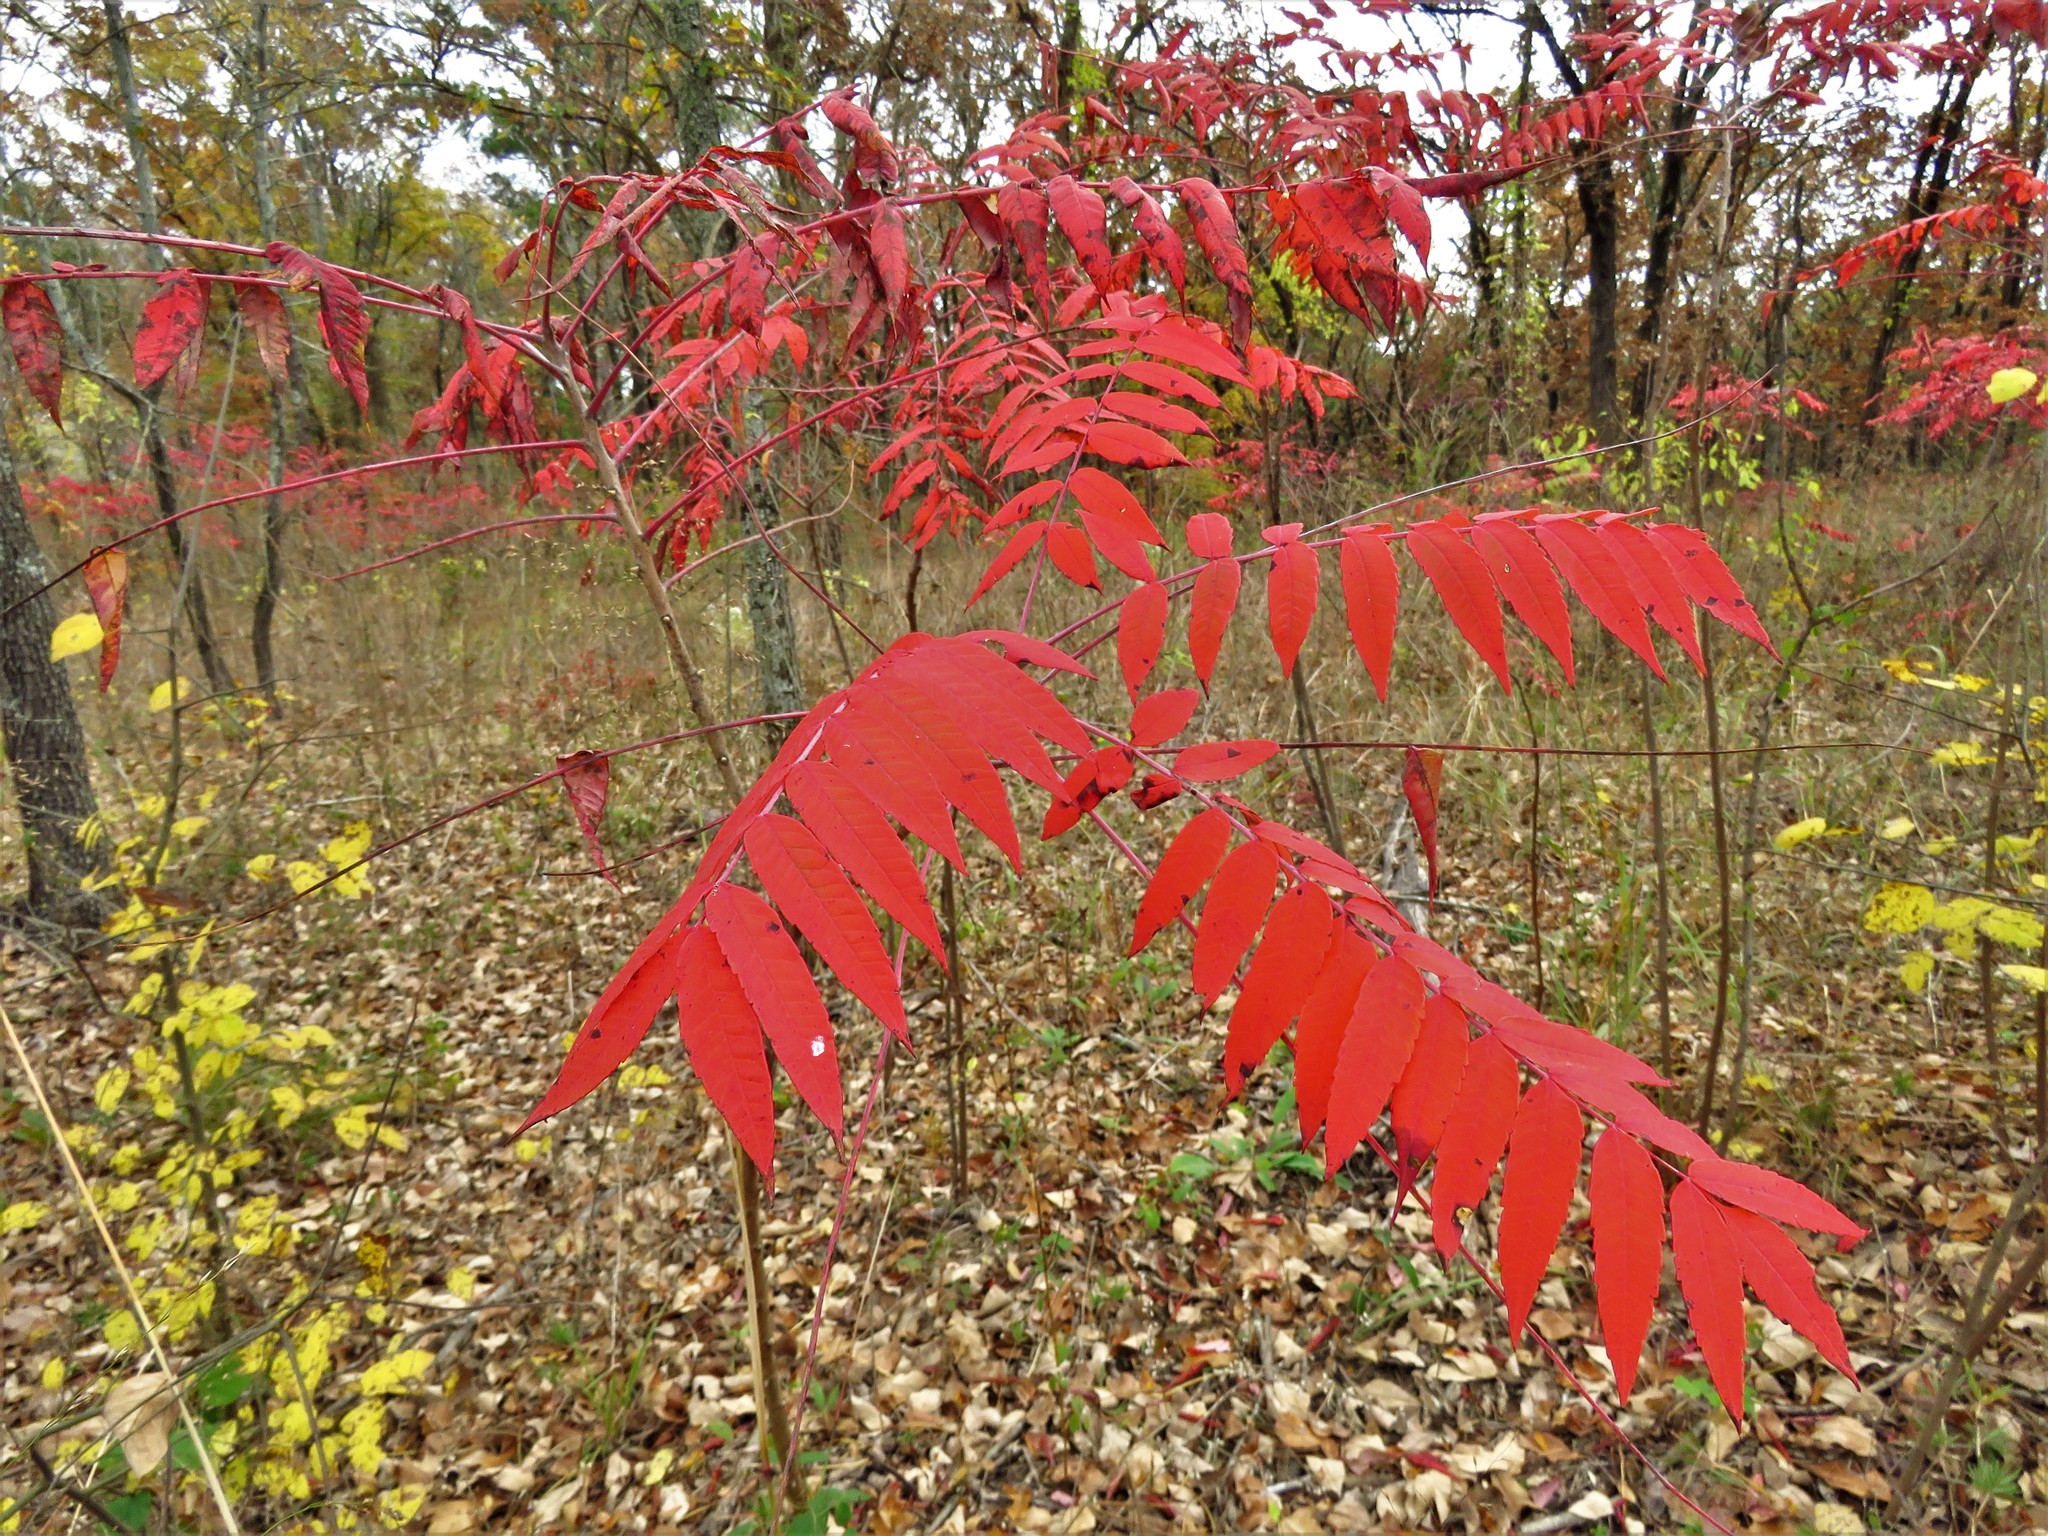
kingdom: Plantae
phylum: Tracheophyta
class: Magnoliopsida
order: Sapindales
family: Anacardiaceae
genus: Rhus
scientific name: Rhus glabra
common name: Scarlet sumac
